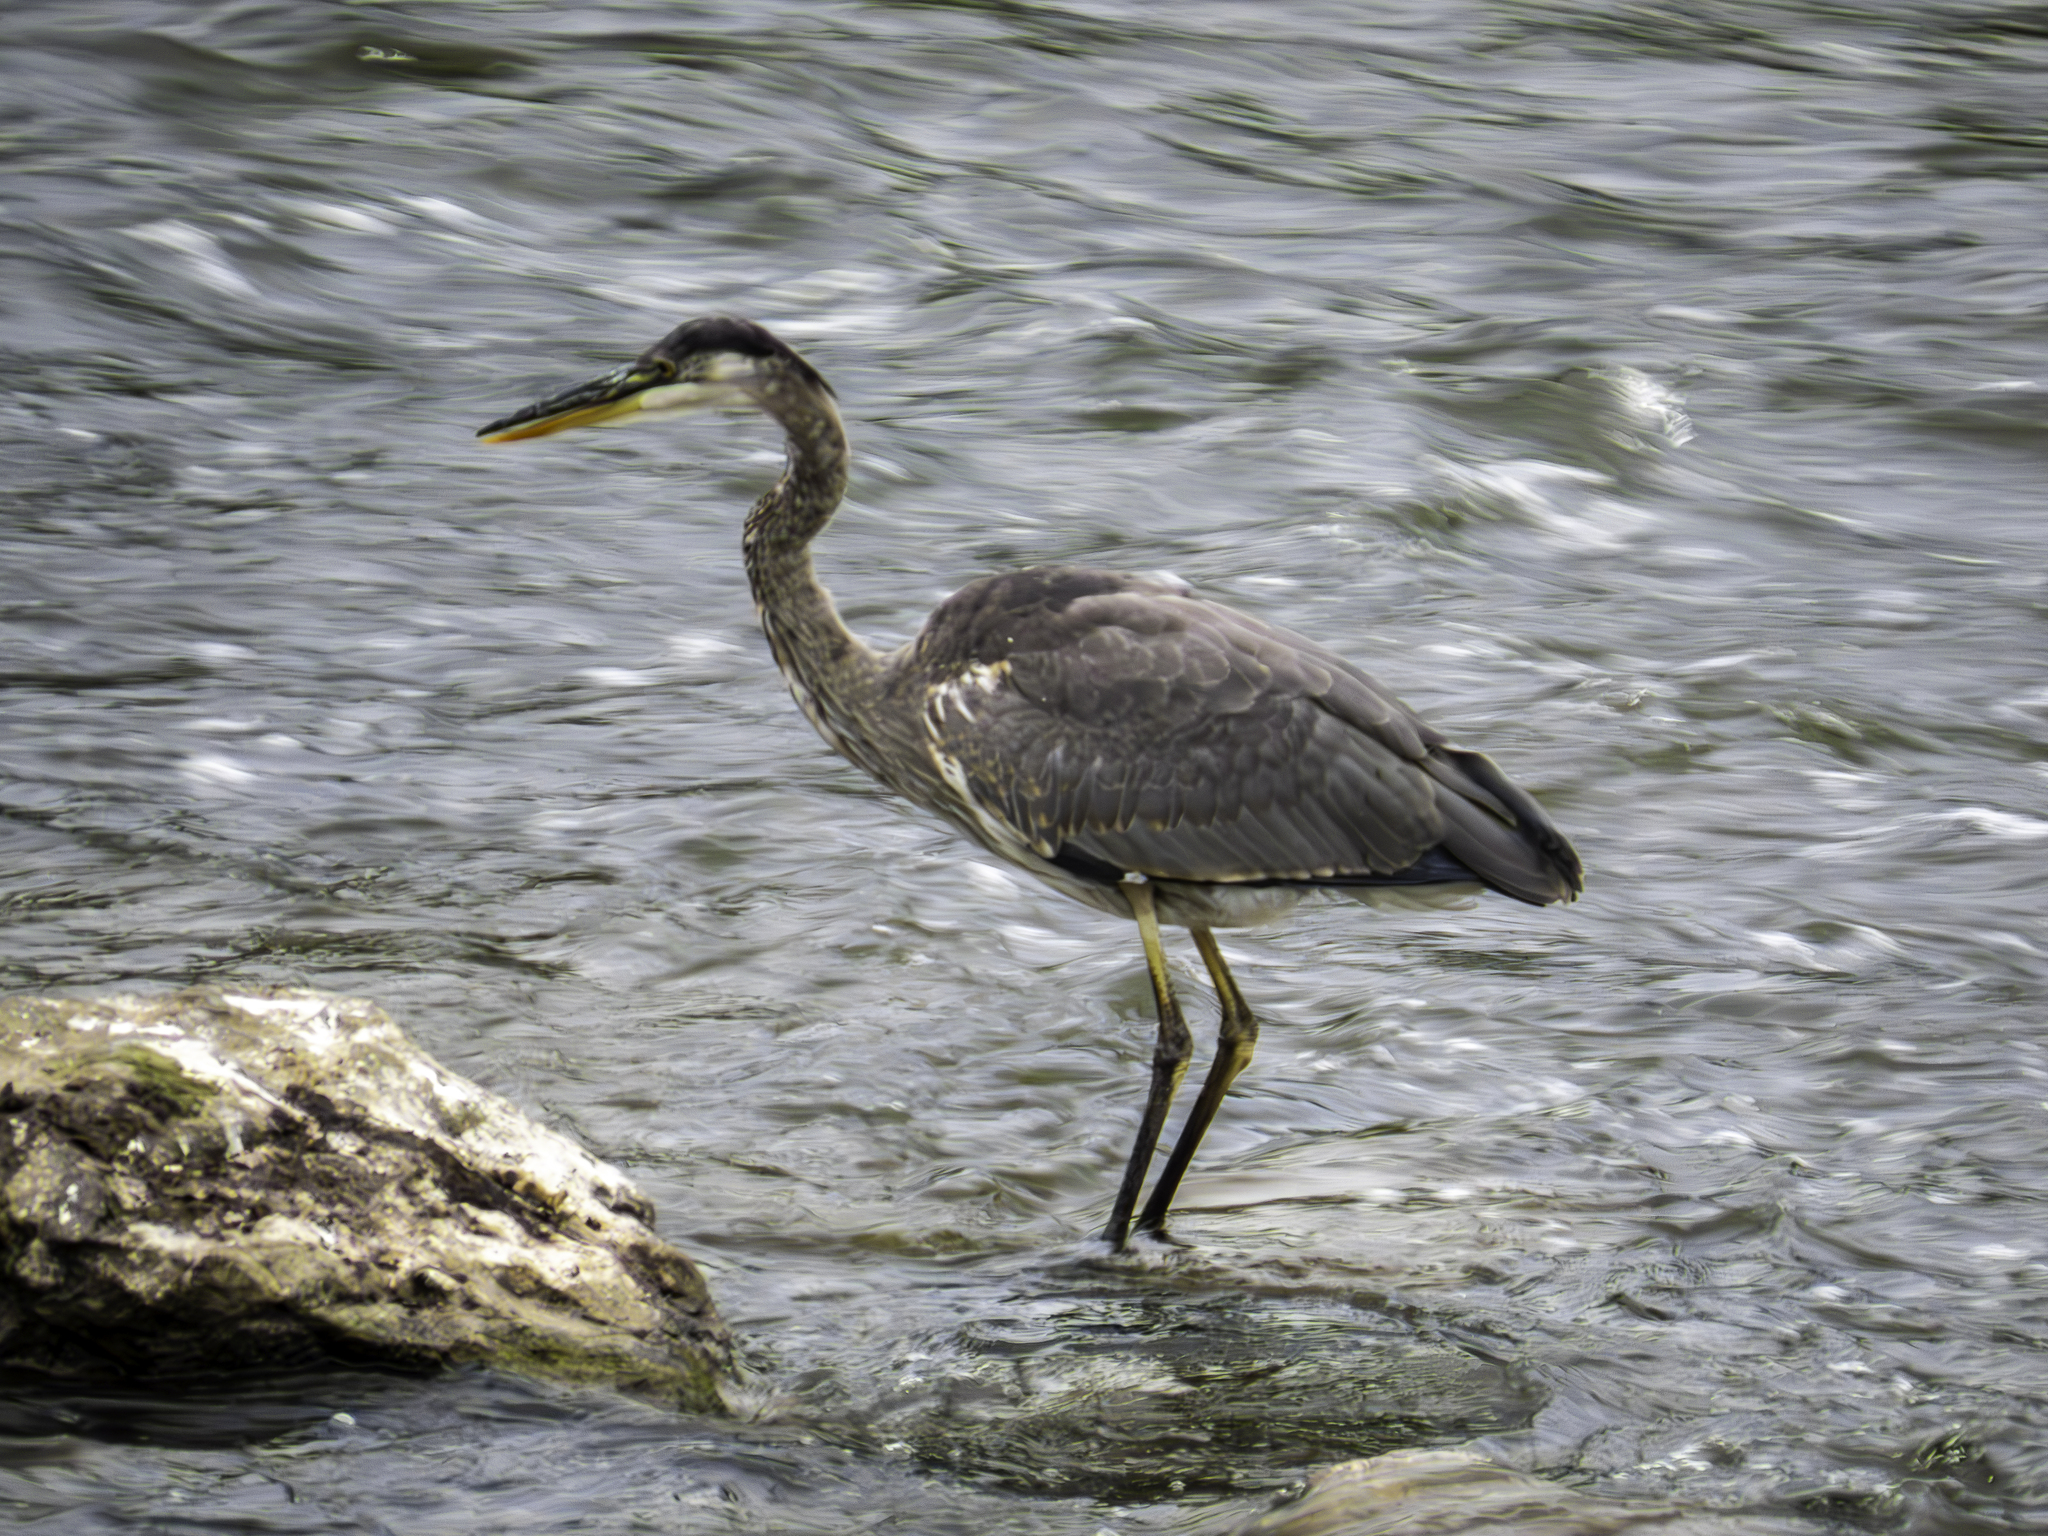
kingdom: Animalia
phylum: Chordata
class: Aves
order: Pelecaniformes
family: Ardeidae
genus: Ardea
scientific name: Ardea herodias
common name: Great blue heron
